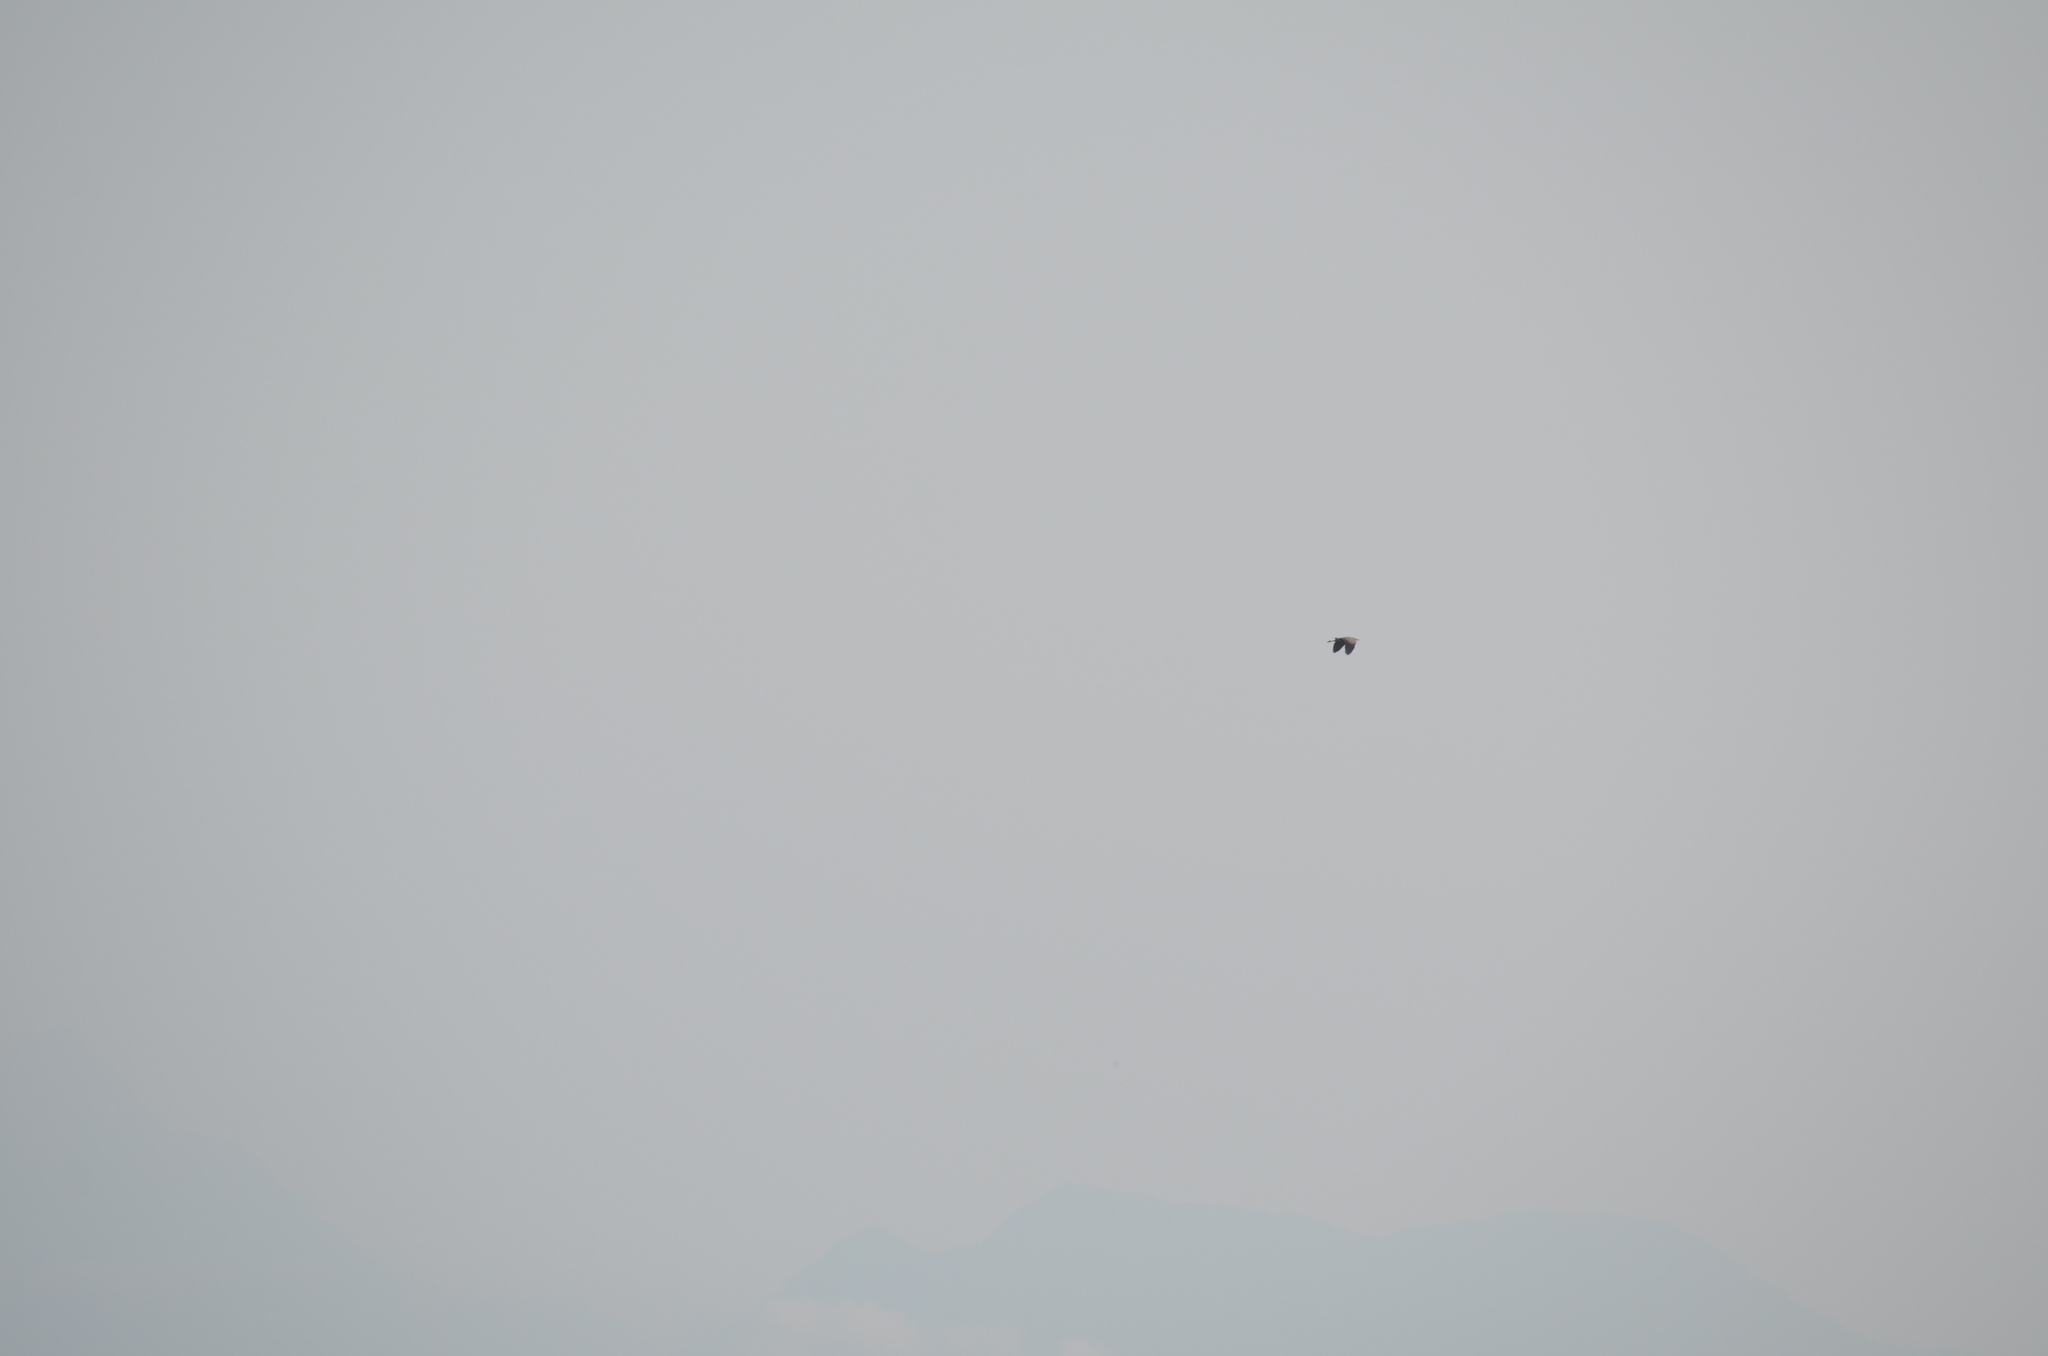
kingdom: Animalia
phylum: Chordata
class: Aves
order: Pelecaniformes
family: Ardeidae
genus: Ardea
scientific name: Ardea herodias
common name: Great blue heron
